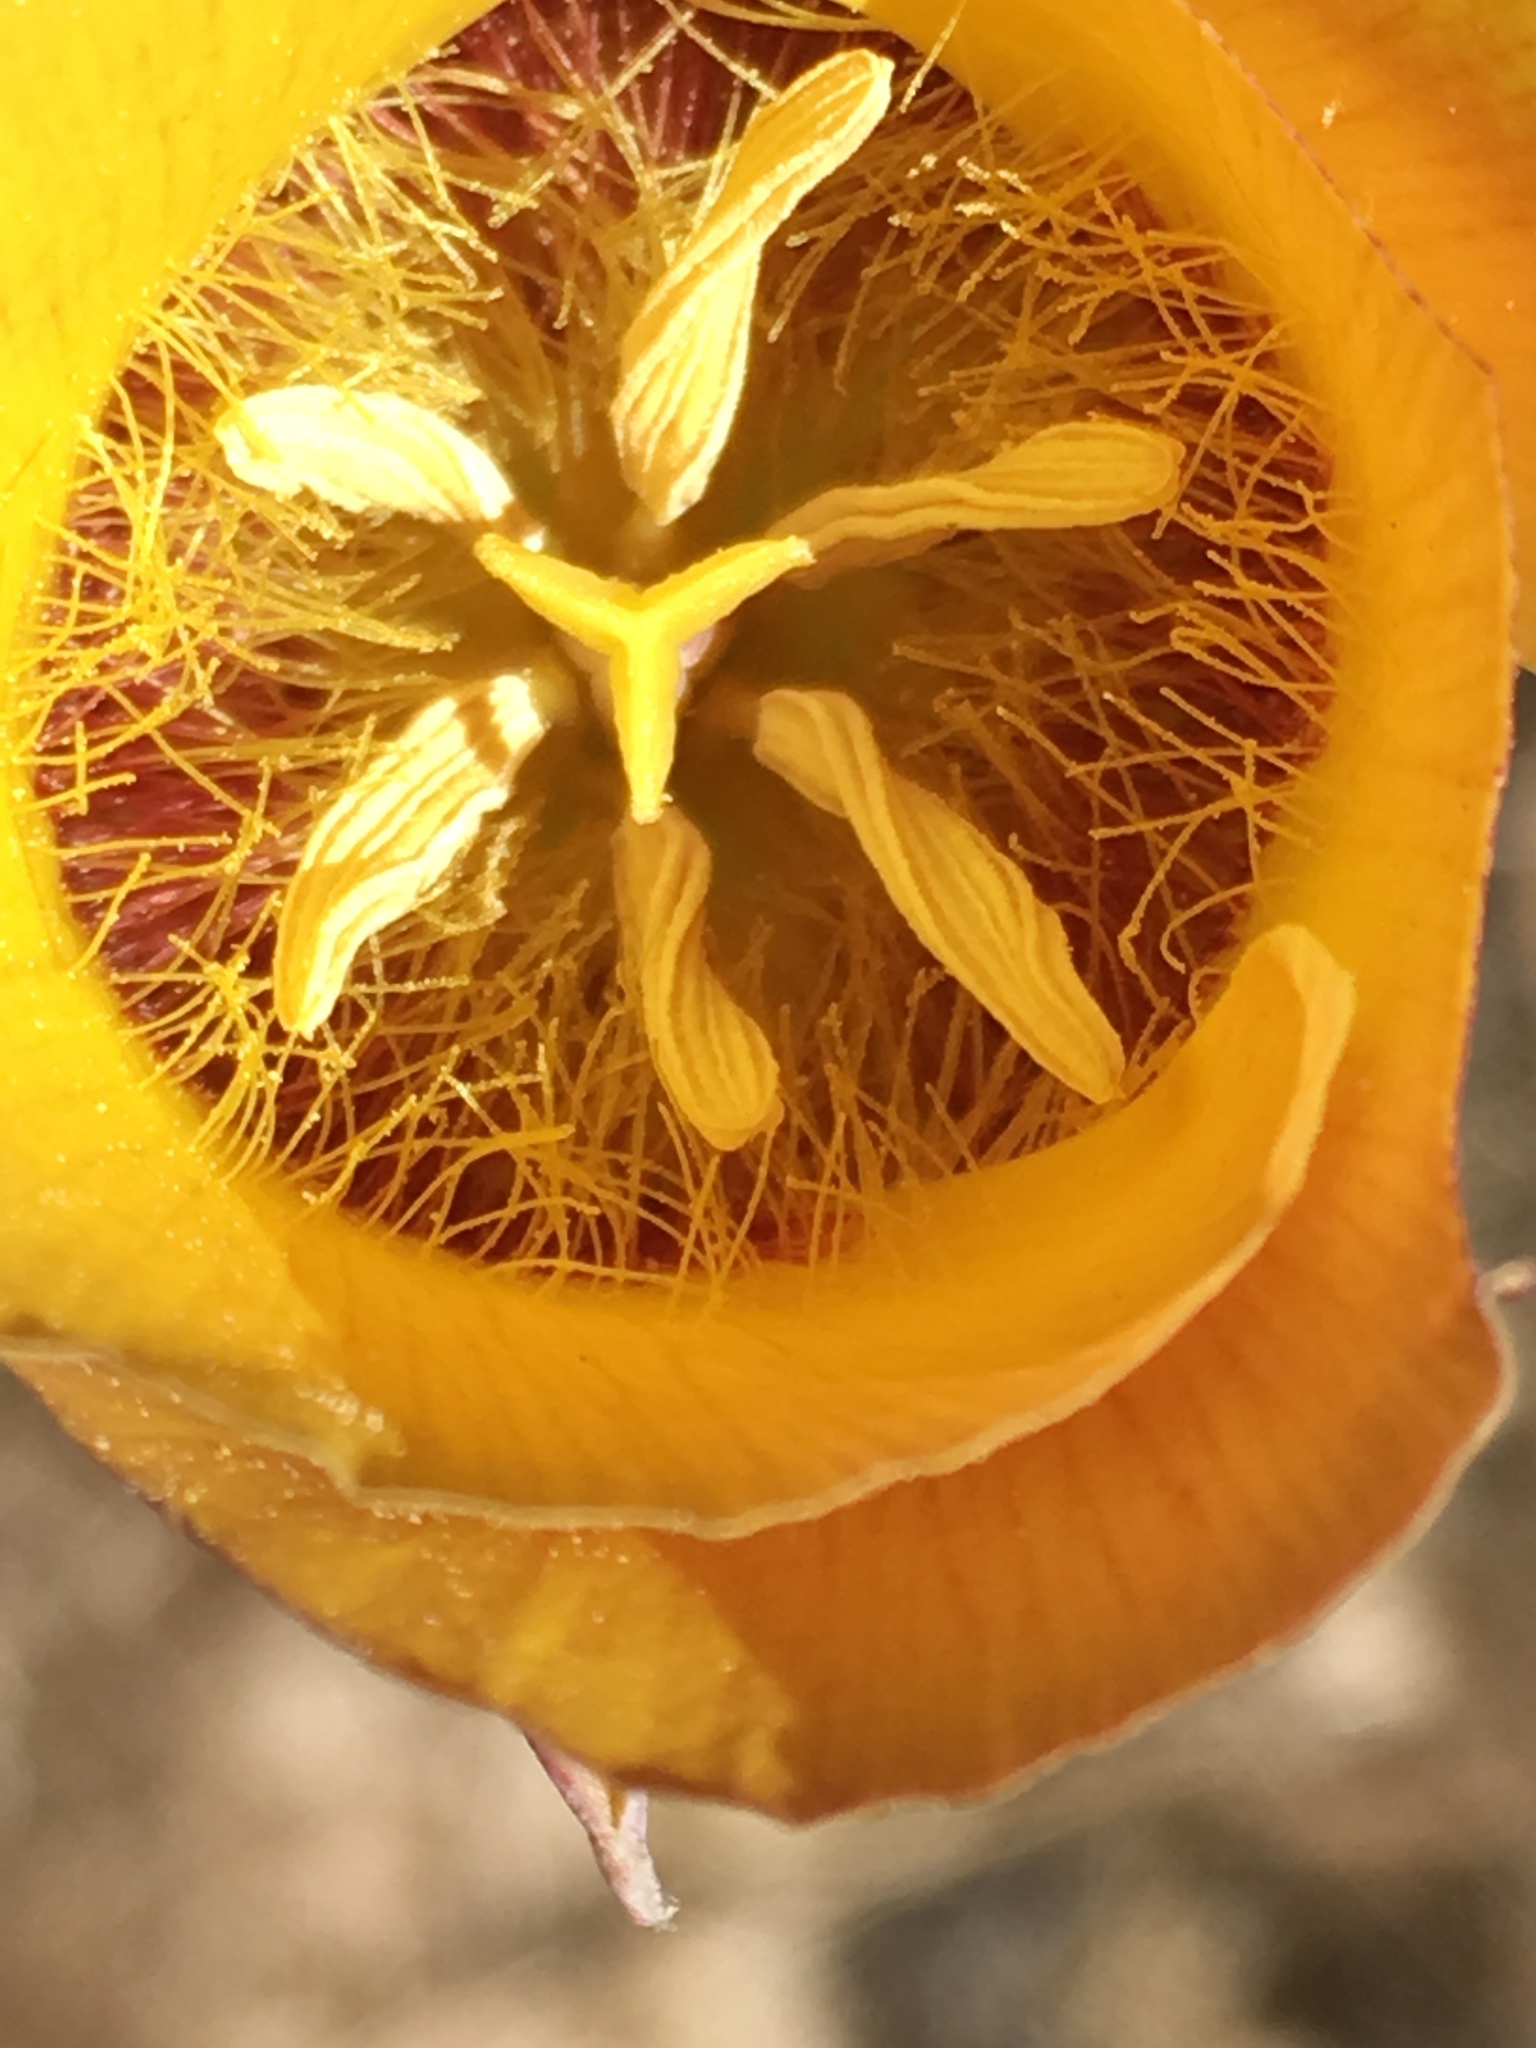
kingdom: Plantae
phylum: Tracheophyta
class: Liliopsida
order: Liliales
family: Liliaceae
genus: Calochortus
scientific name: Calochortus concolor
